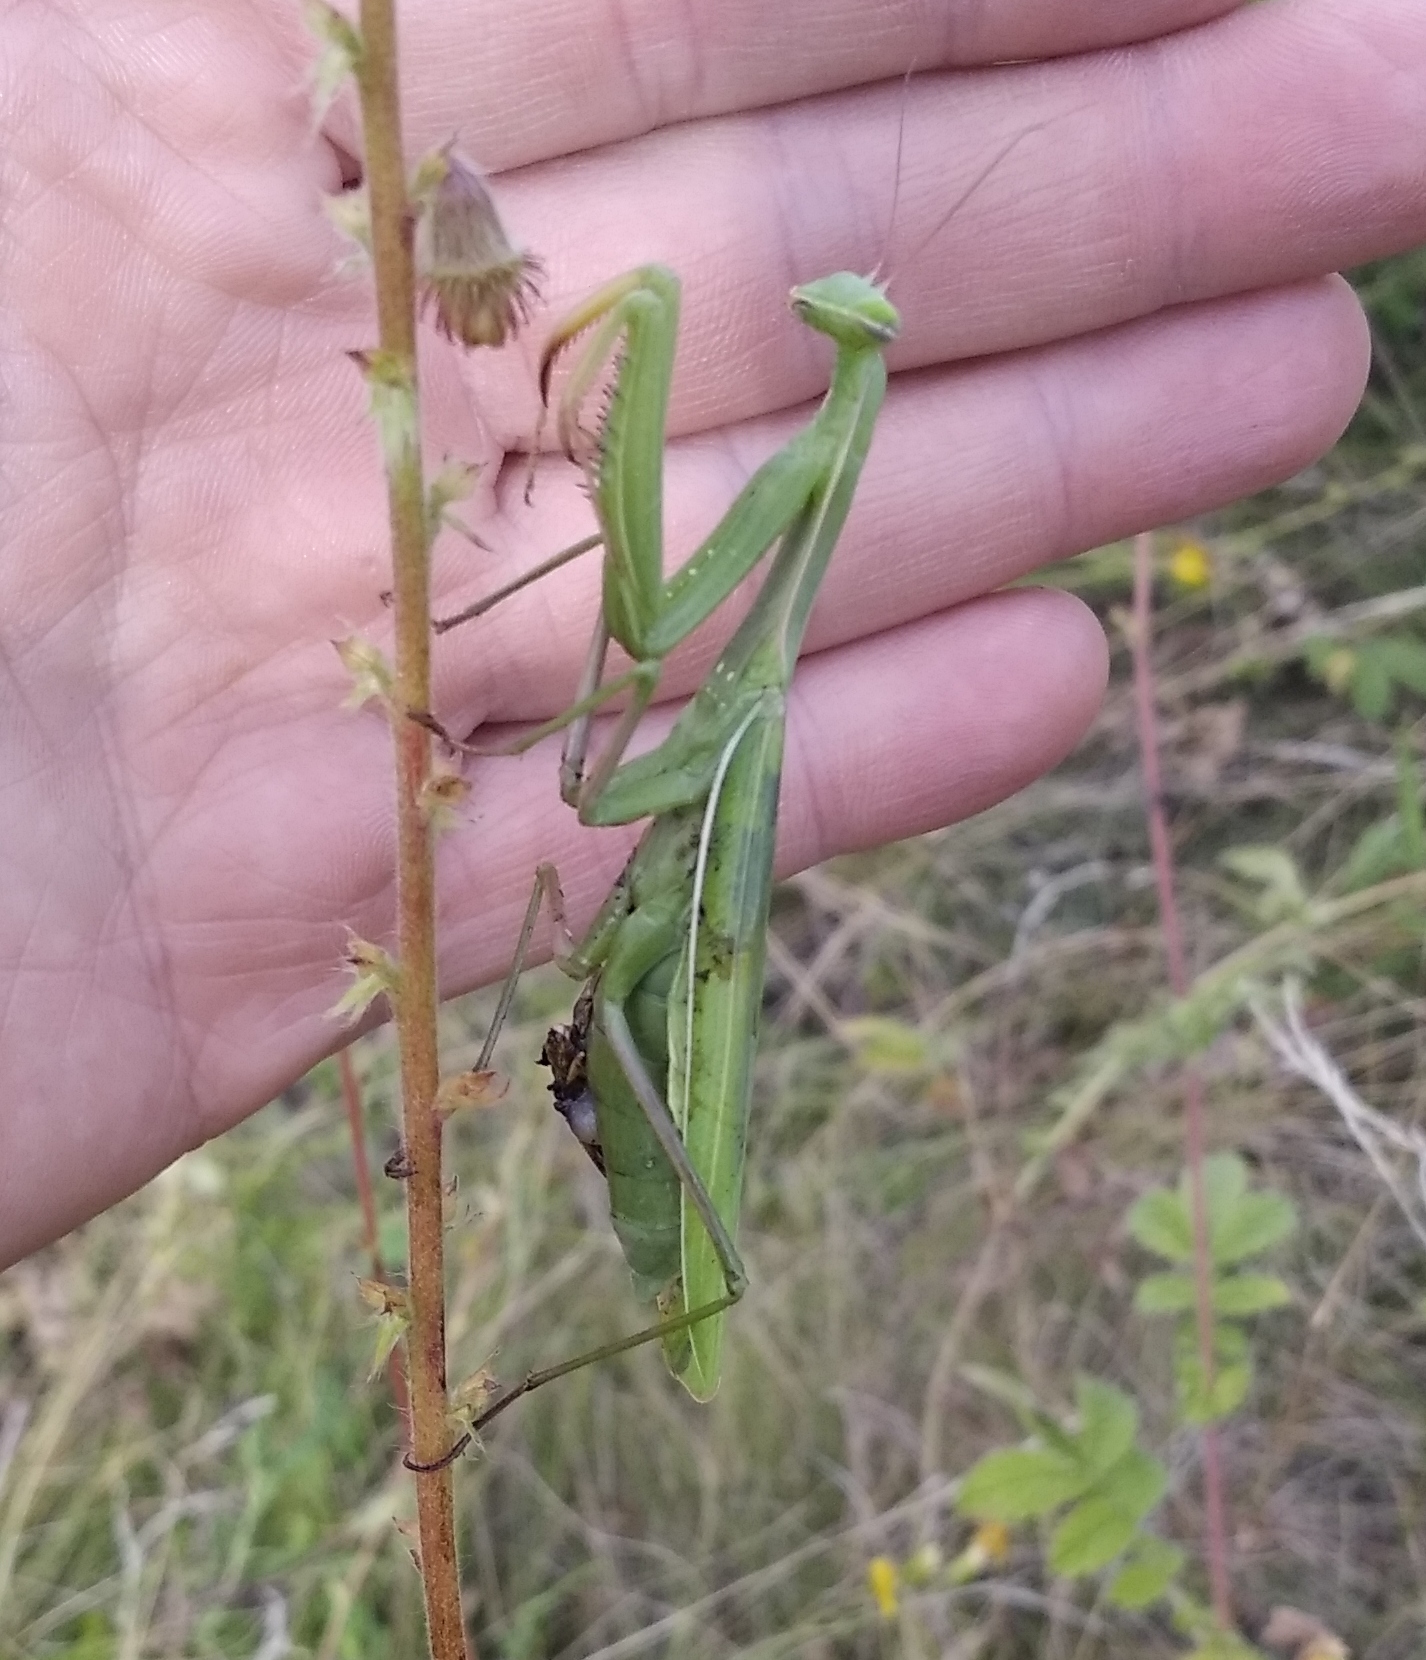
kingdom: Animalia
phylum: Arthropoda
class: Insecta
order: Mantodea
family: Mantidae
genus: Mantis
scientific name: Mantis religiosa
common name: Praying mantis
